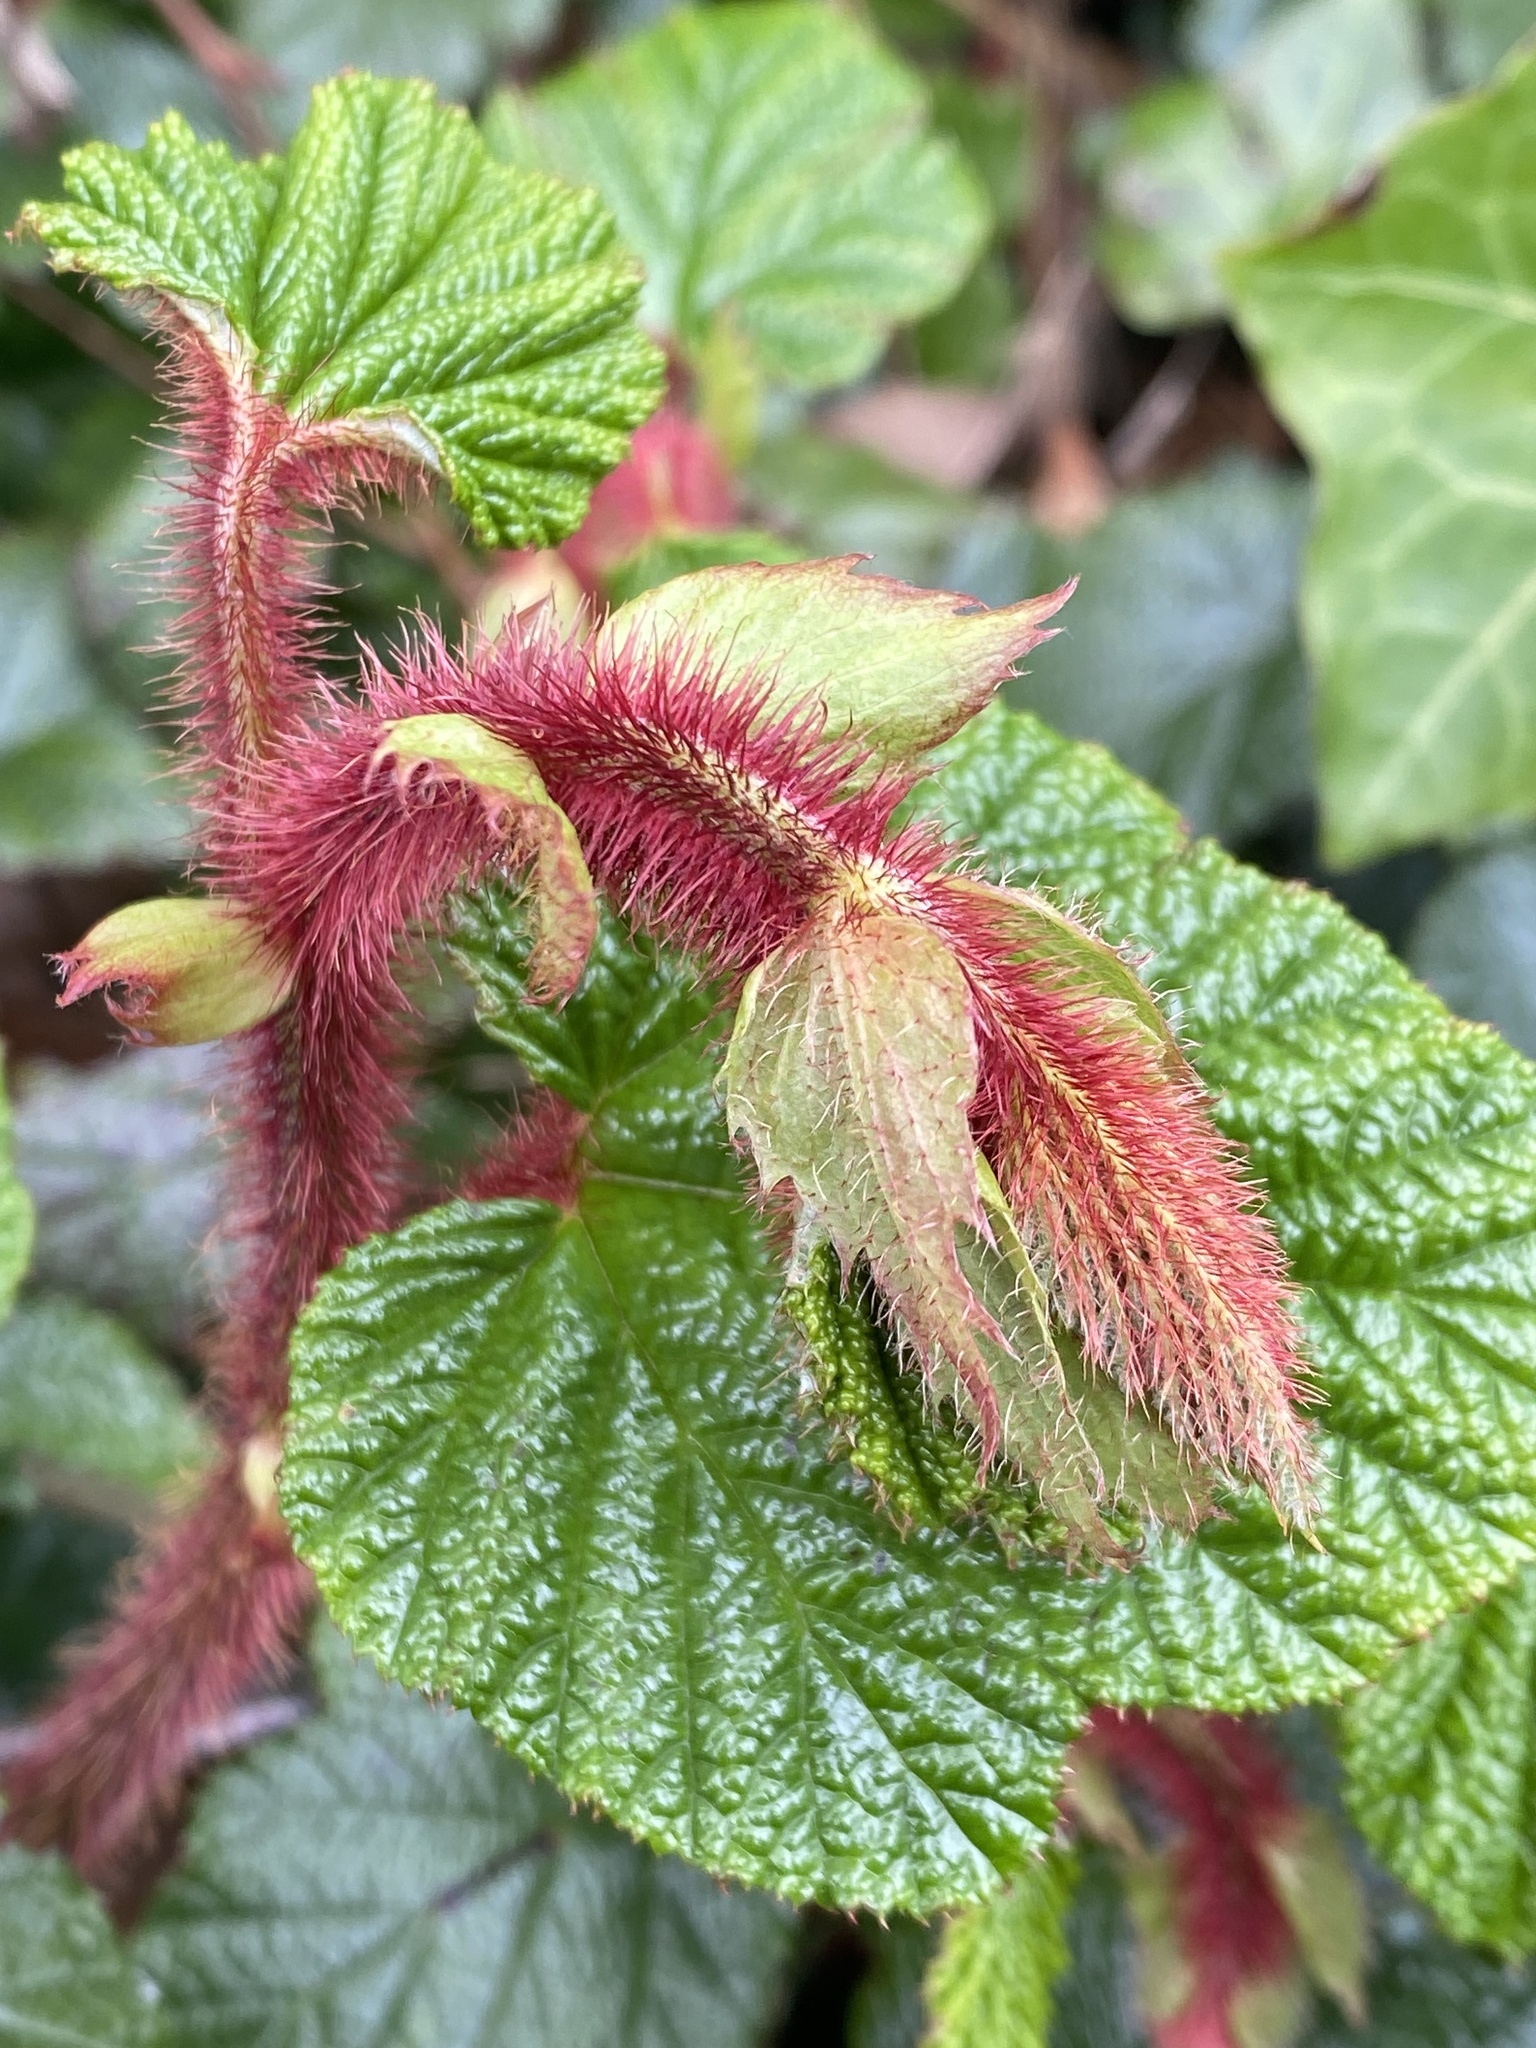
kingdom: Plantae
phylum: Tracheophyta
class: Magnoliopsida
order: Rosales
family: Rosaceae
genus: Rubus
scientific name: Rubus tricolor
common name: Chinese bramble
